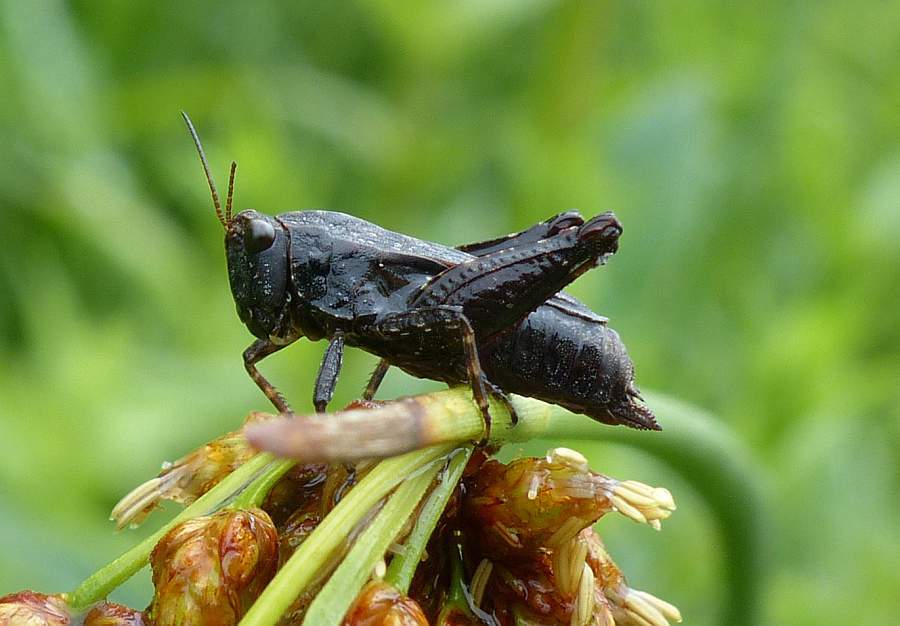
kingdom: Animalia
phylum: Arthropoda
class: Insecta
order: Orthoptera
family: Tetrigidae
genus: Tettigidea
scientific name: Tettigidea laterale
